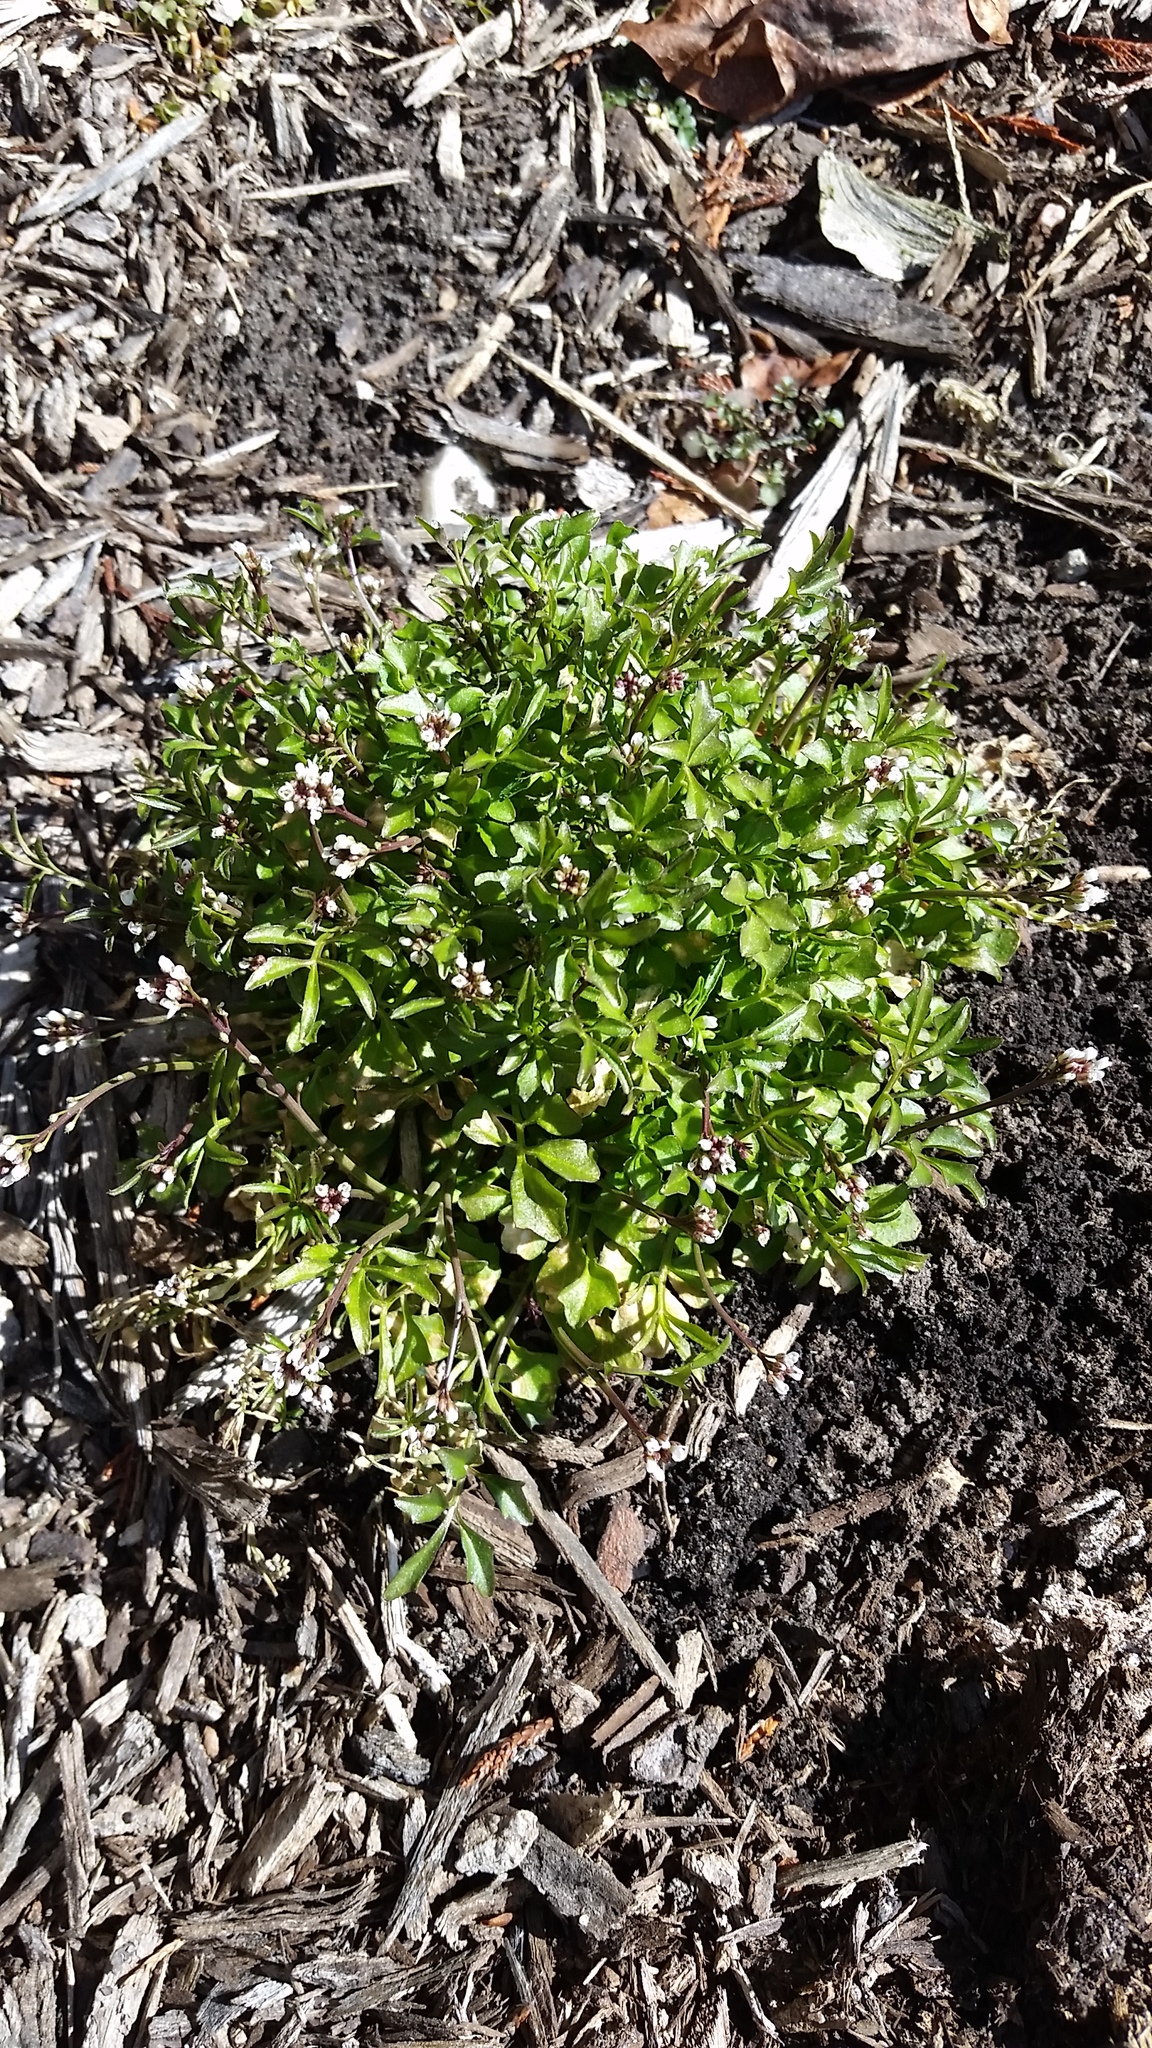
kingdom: Plantae
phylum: Tracheophyta
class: Magnoliopsida
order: Brassicales
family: Brassicaceae
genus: Cardamine
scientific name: Cardamine hirsuta
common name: Hairy bittercress
